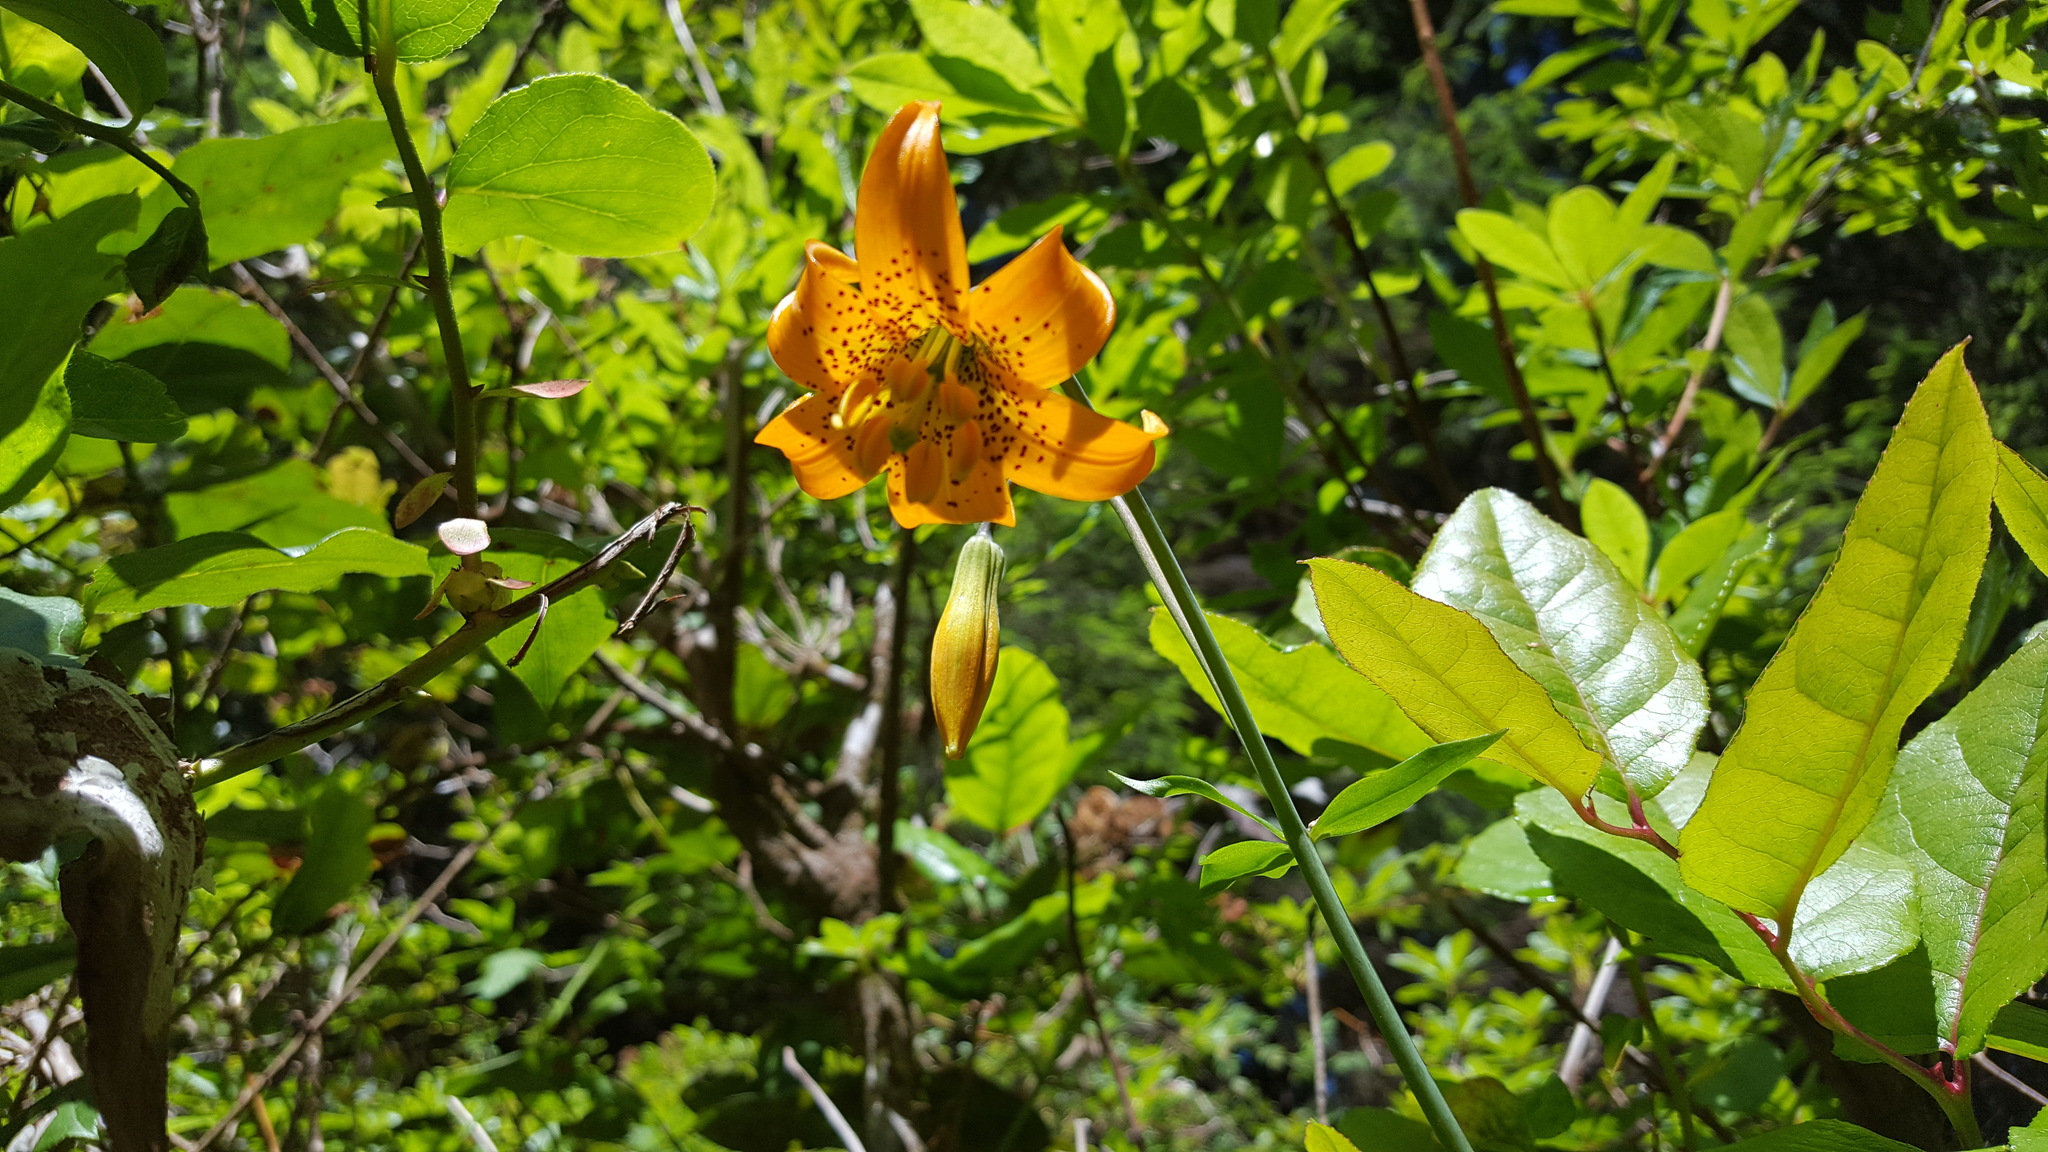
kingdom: Plantae
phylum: Tracheophyta
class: Liliopsida
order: Liliales
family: Liliaceae
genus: Lilium
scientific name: Lilium columbianum
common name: Columbia lily
